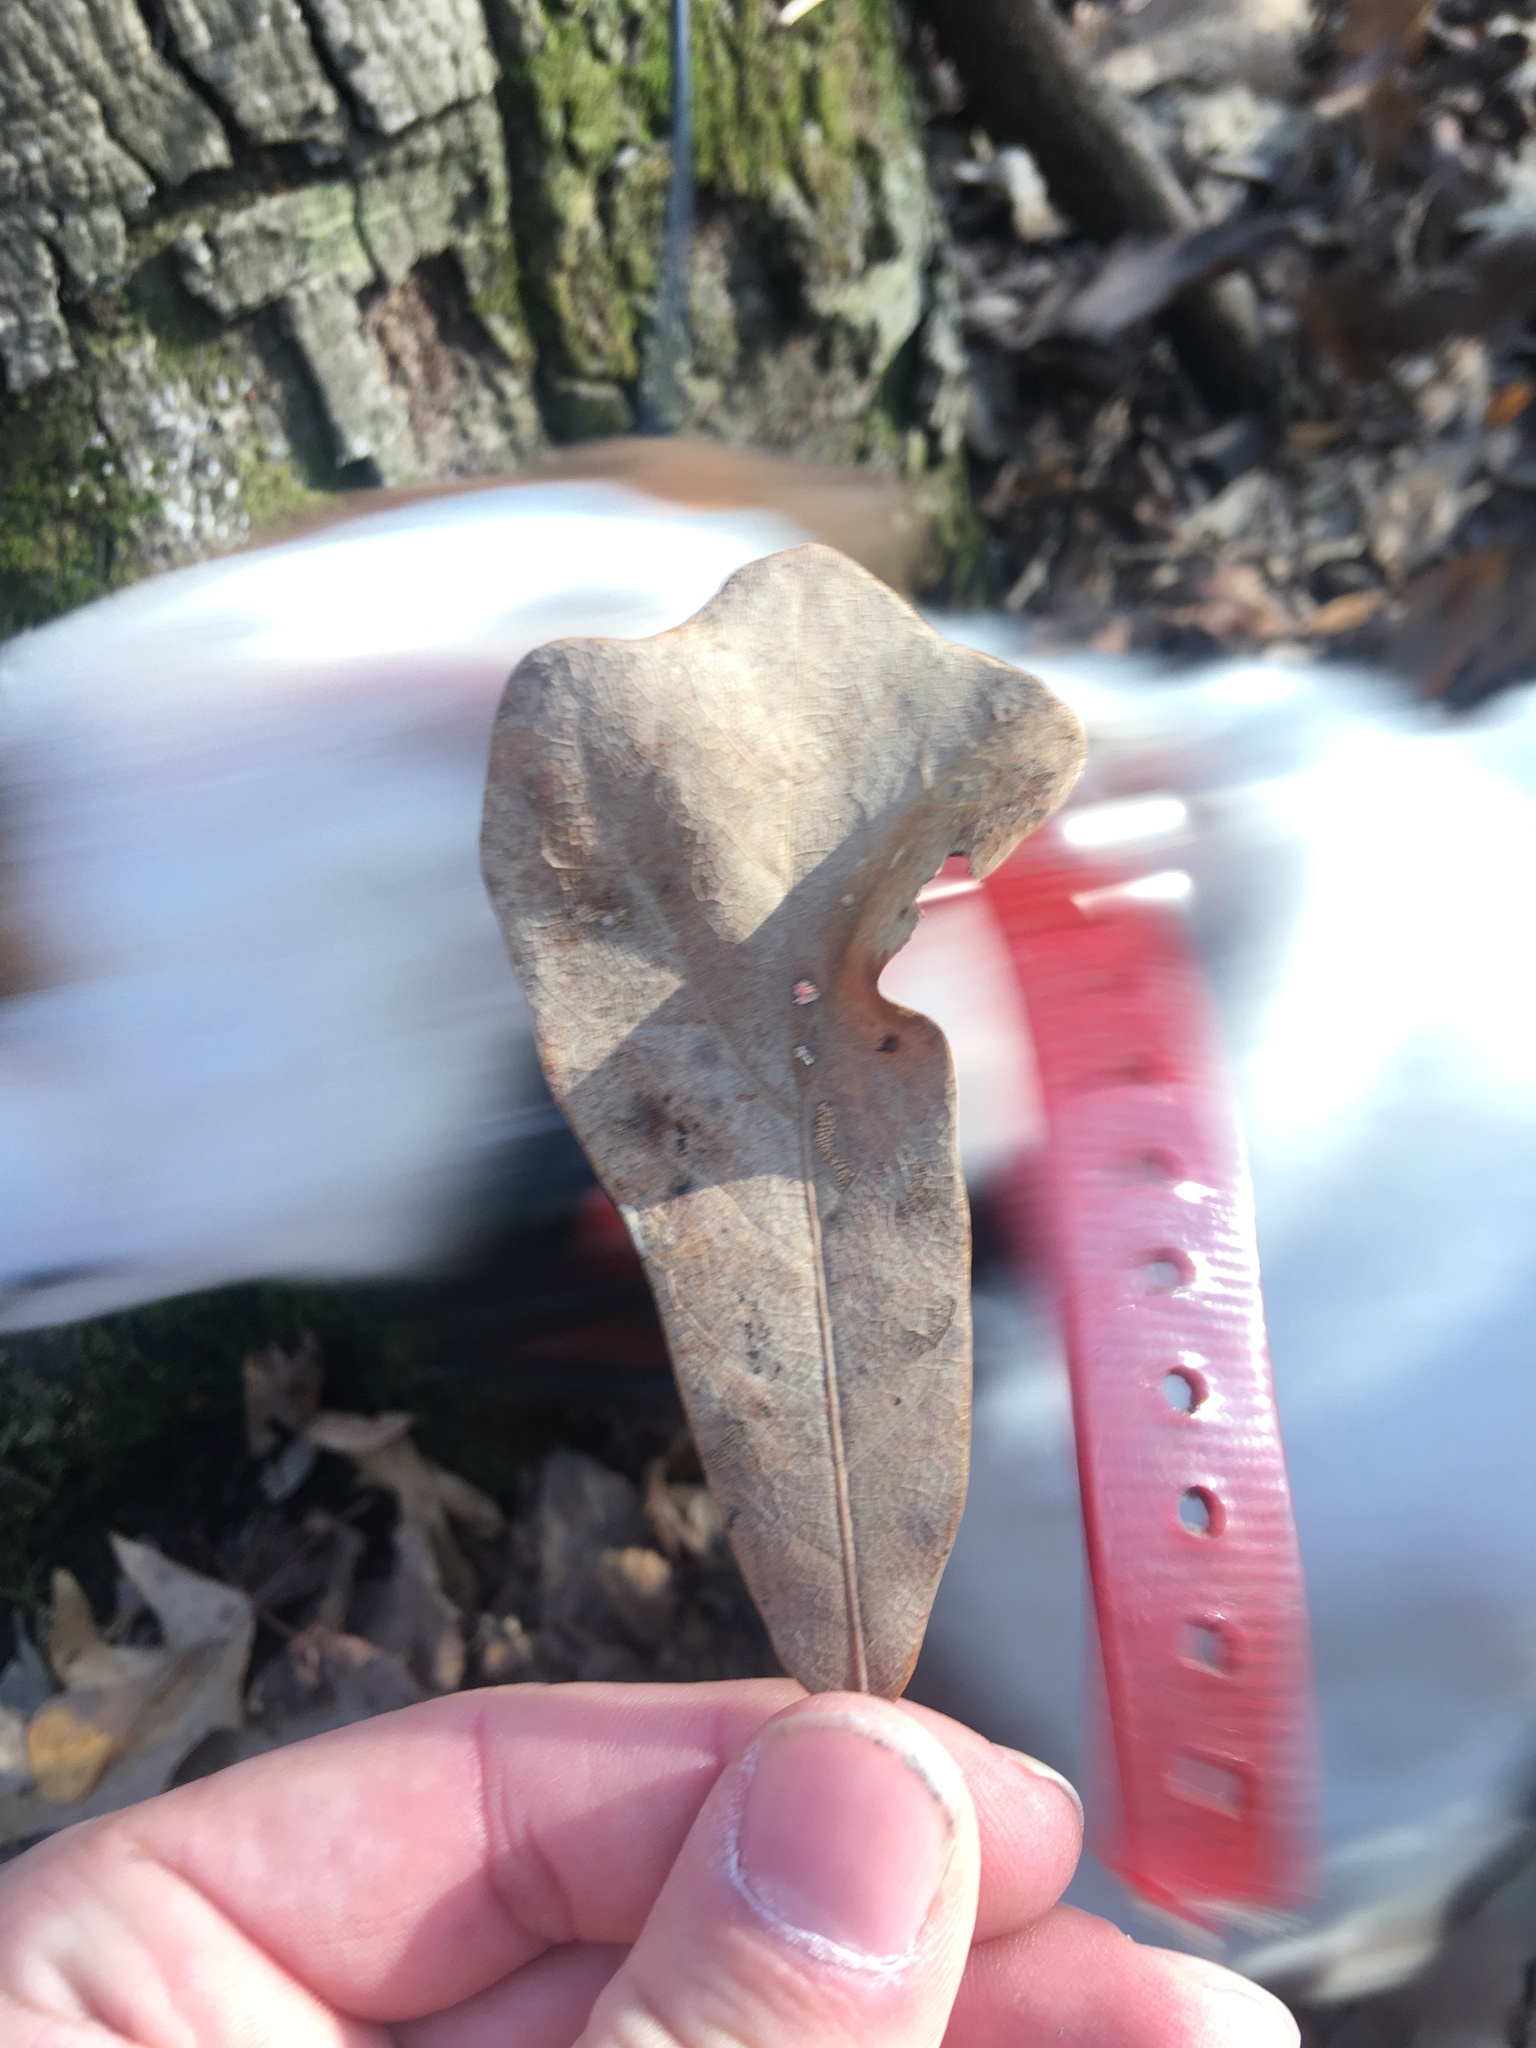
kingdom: Plantae
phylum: Tracheophyta
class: Magnoliopsida
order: Fagales
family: Fagaceae
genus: Quercus
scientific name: Quercus nigra
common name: Water oak
